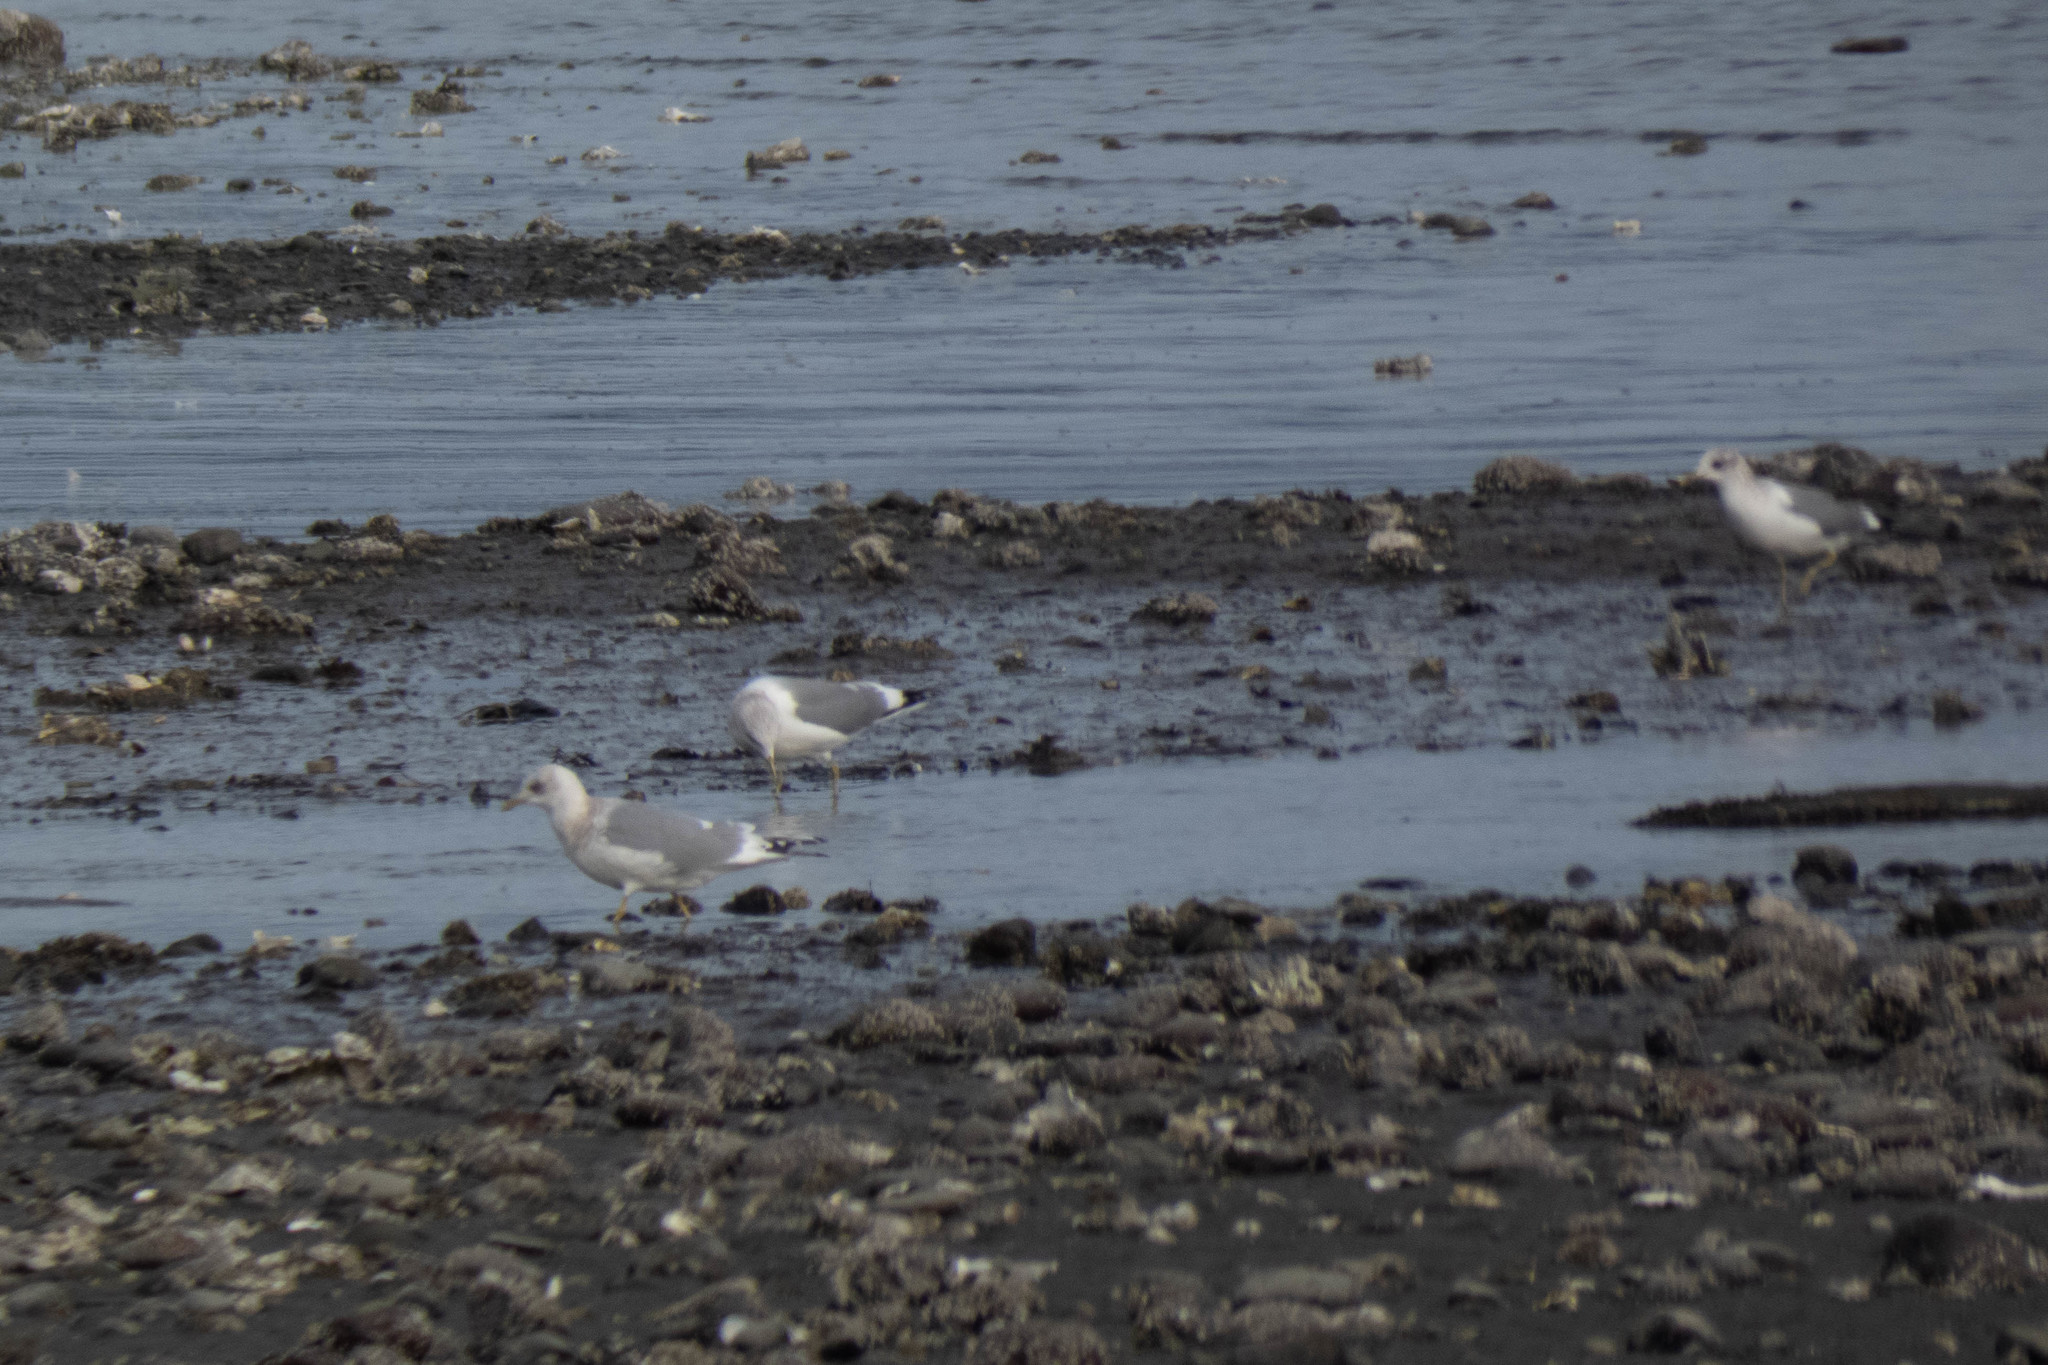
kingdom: Animalia
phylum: Chordata
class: Aves
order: Charadriiformes
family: Laridae
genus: Larus
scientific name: Larus brachyrhynchus
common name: Short-billed gull
